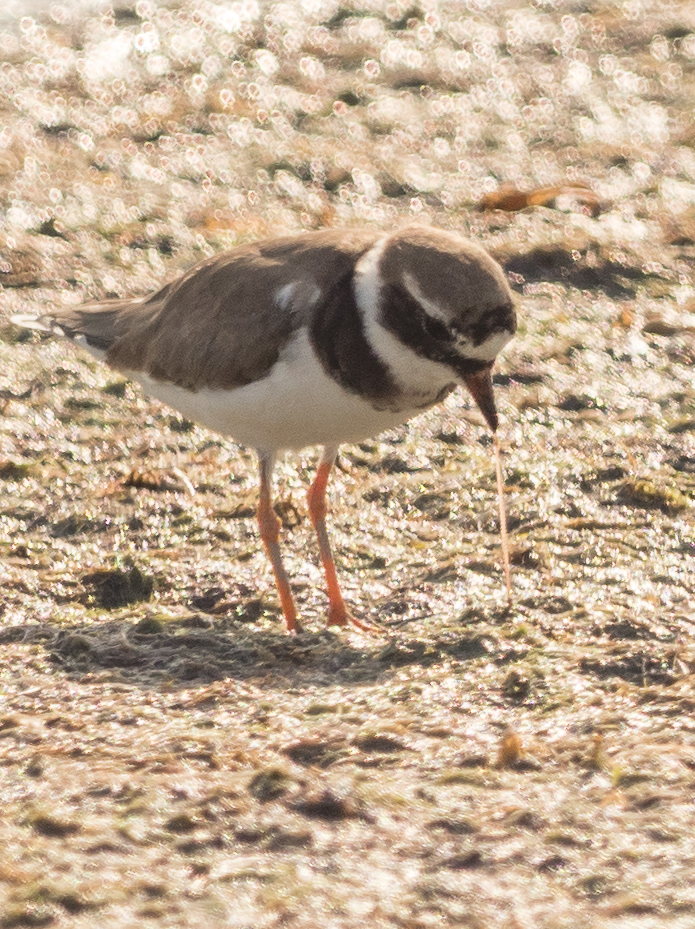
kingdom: Animalia
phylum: Chordata
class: Aves
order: Charadriiformes
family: Charadriidae
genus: Charadrius
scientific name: Charadrius hiaticula
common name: Common ringed plover
